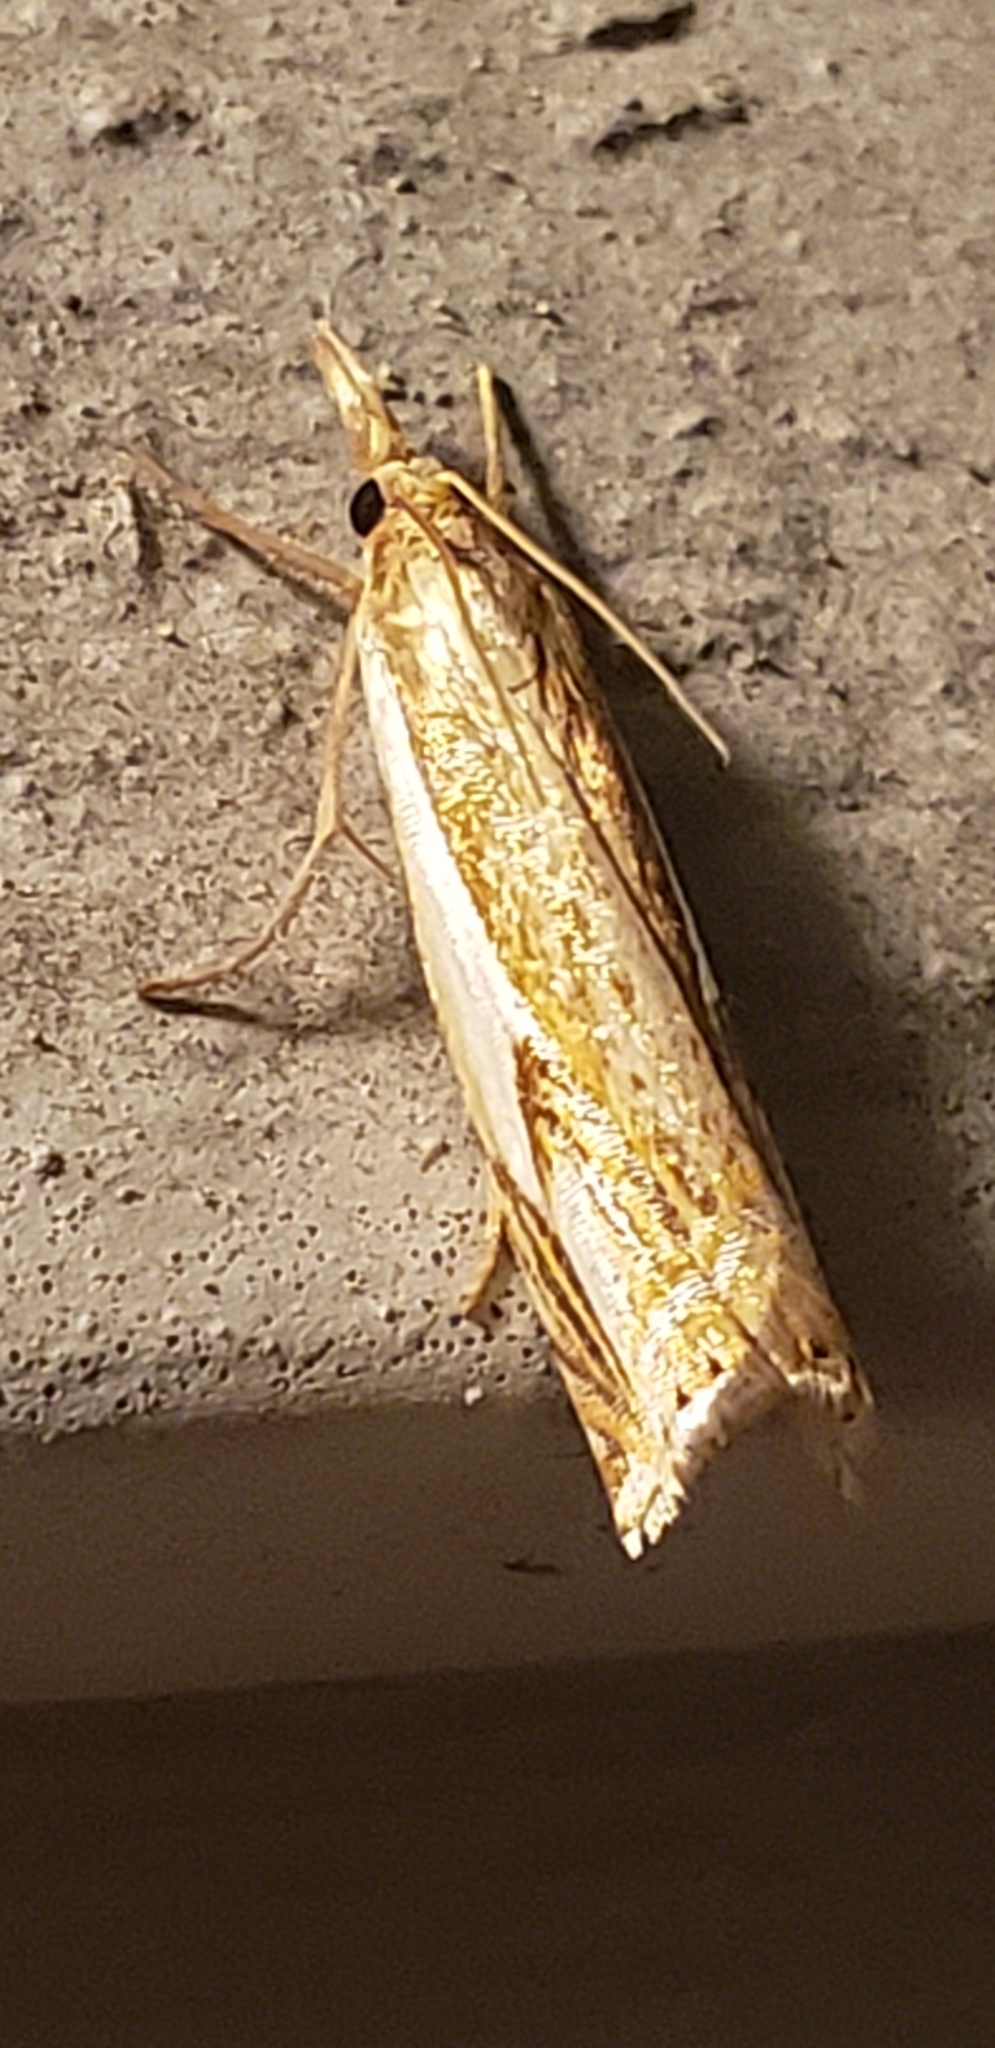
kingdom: Animalia
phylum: Arthropoda
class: Insecta
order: Lepidoptera
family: Crambidae
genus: Crambus
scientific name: Crambus agitatellus
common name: Double-banded grass-veneer
